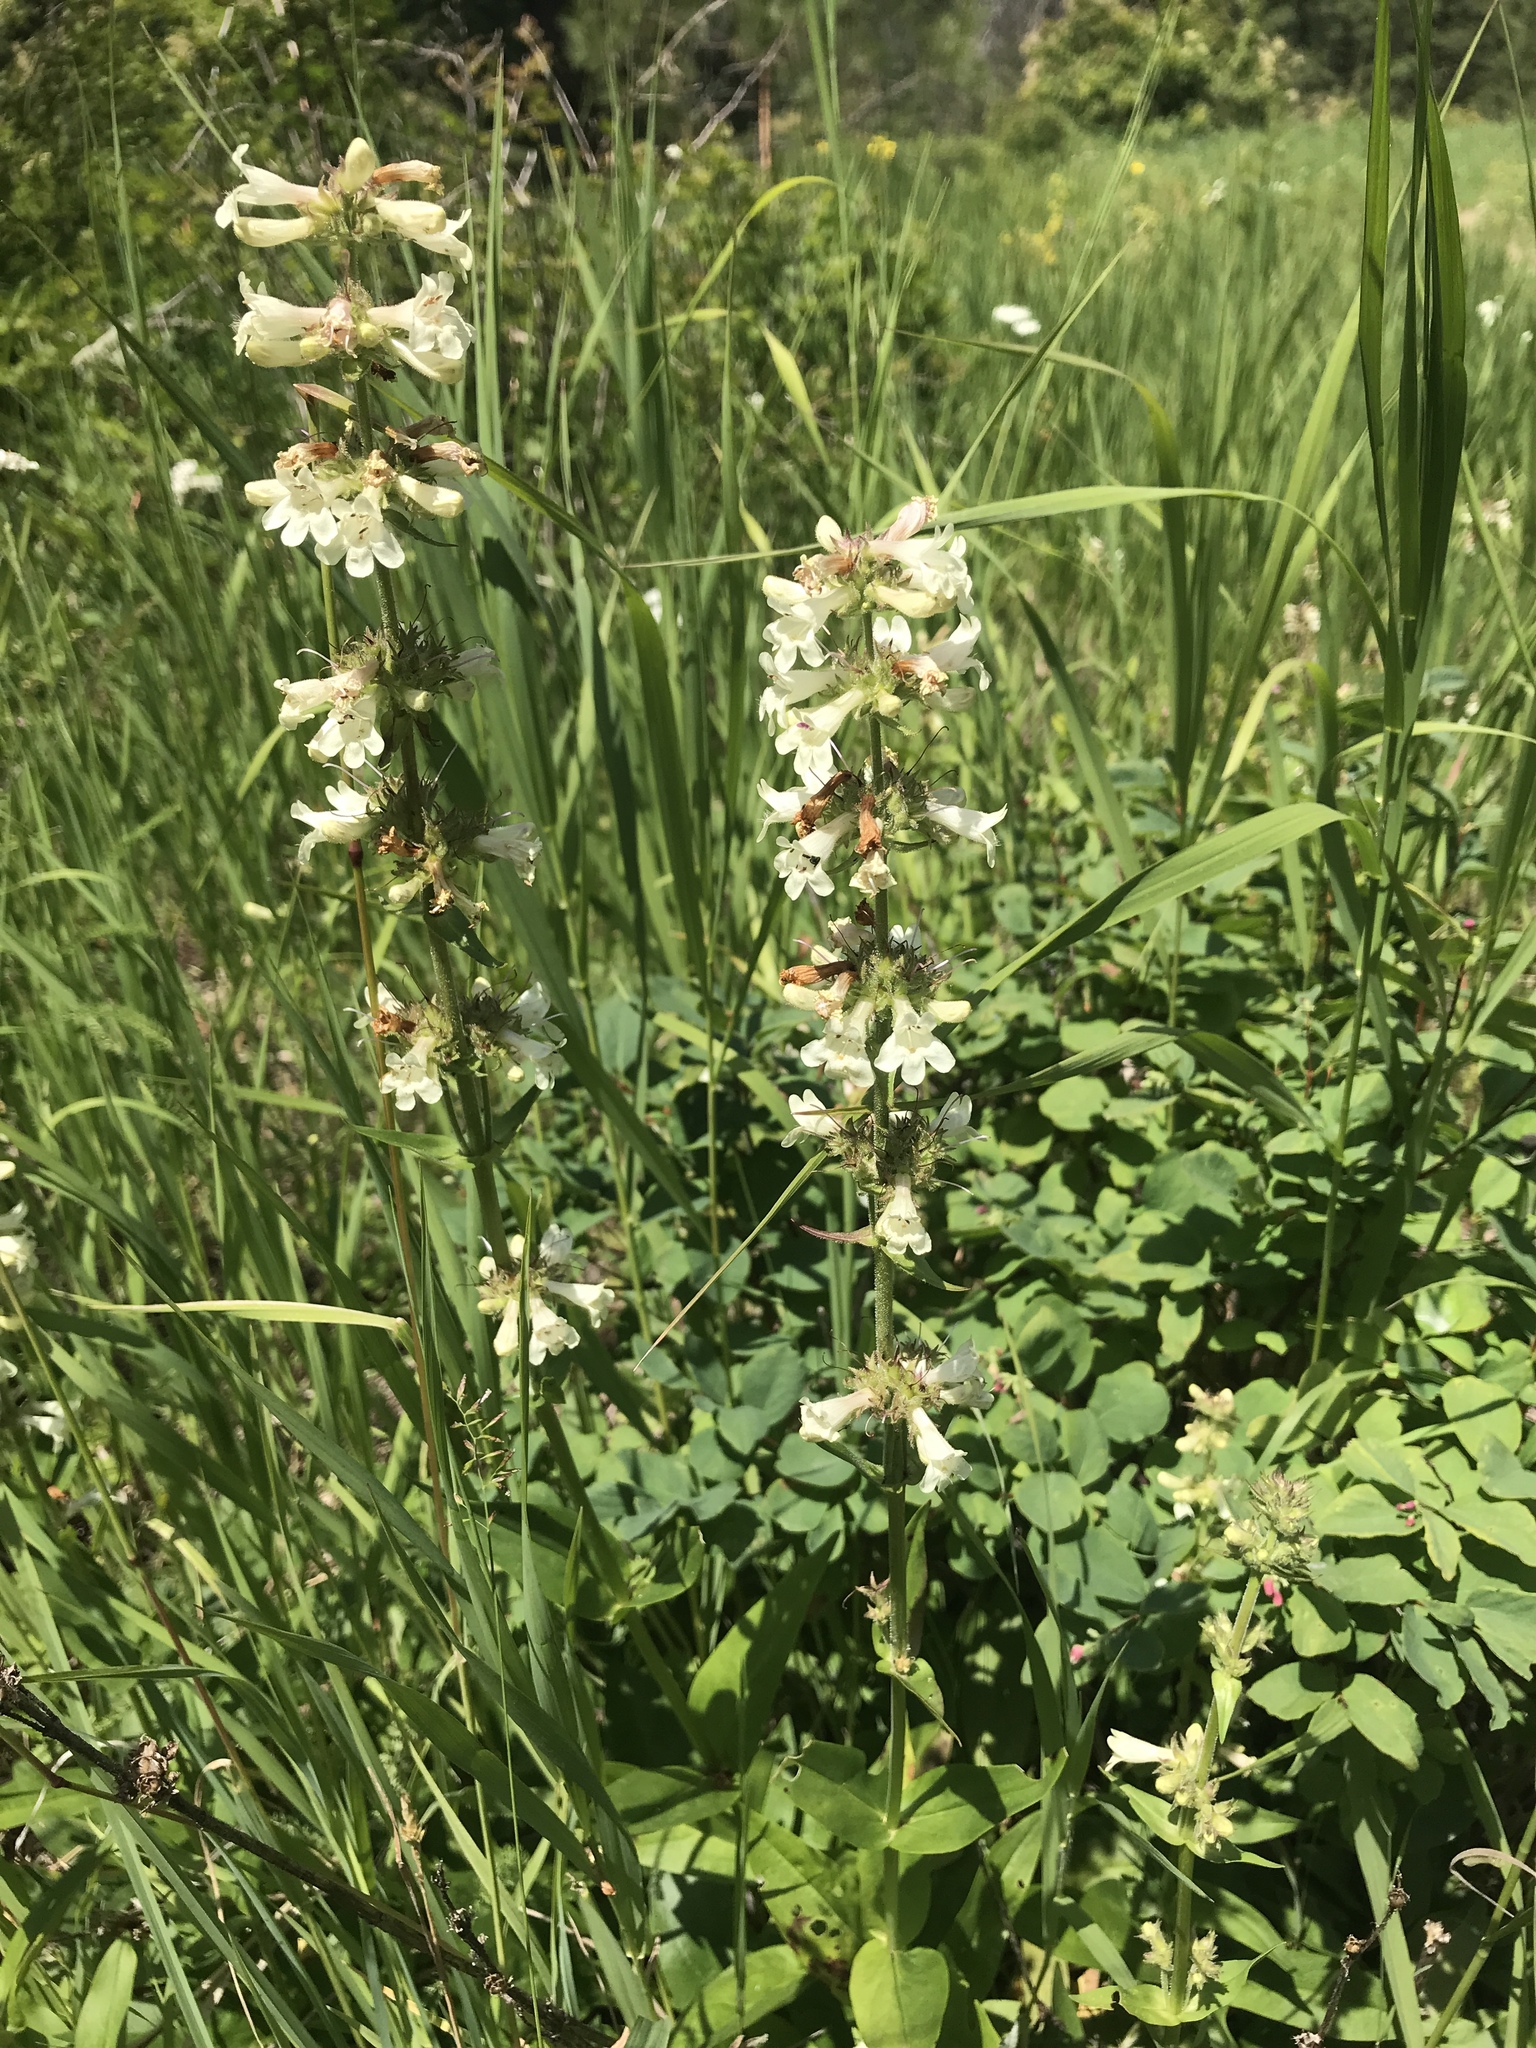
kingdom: Plantae
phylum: Tracheophyta
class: Magnoliopsida
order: Lamiales
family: Plantaginaceae
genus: Penstemon
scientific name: Penstemon confertus
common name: Lesser yellow beardtongue
